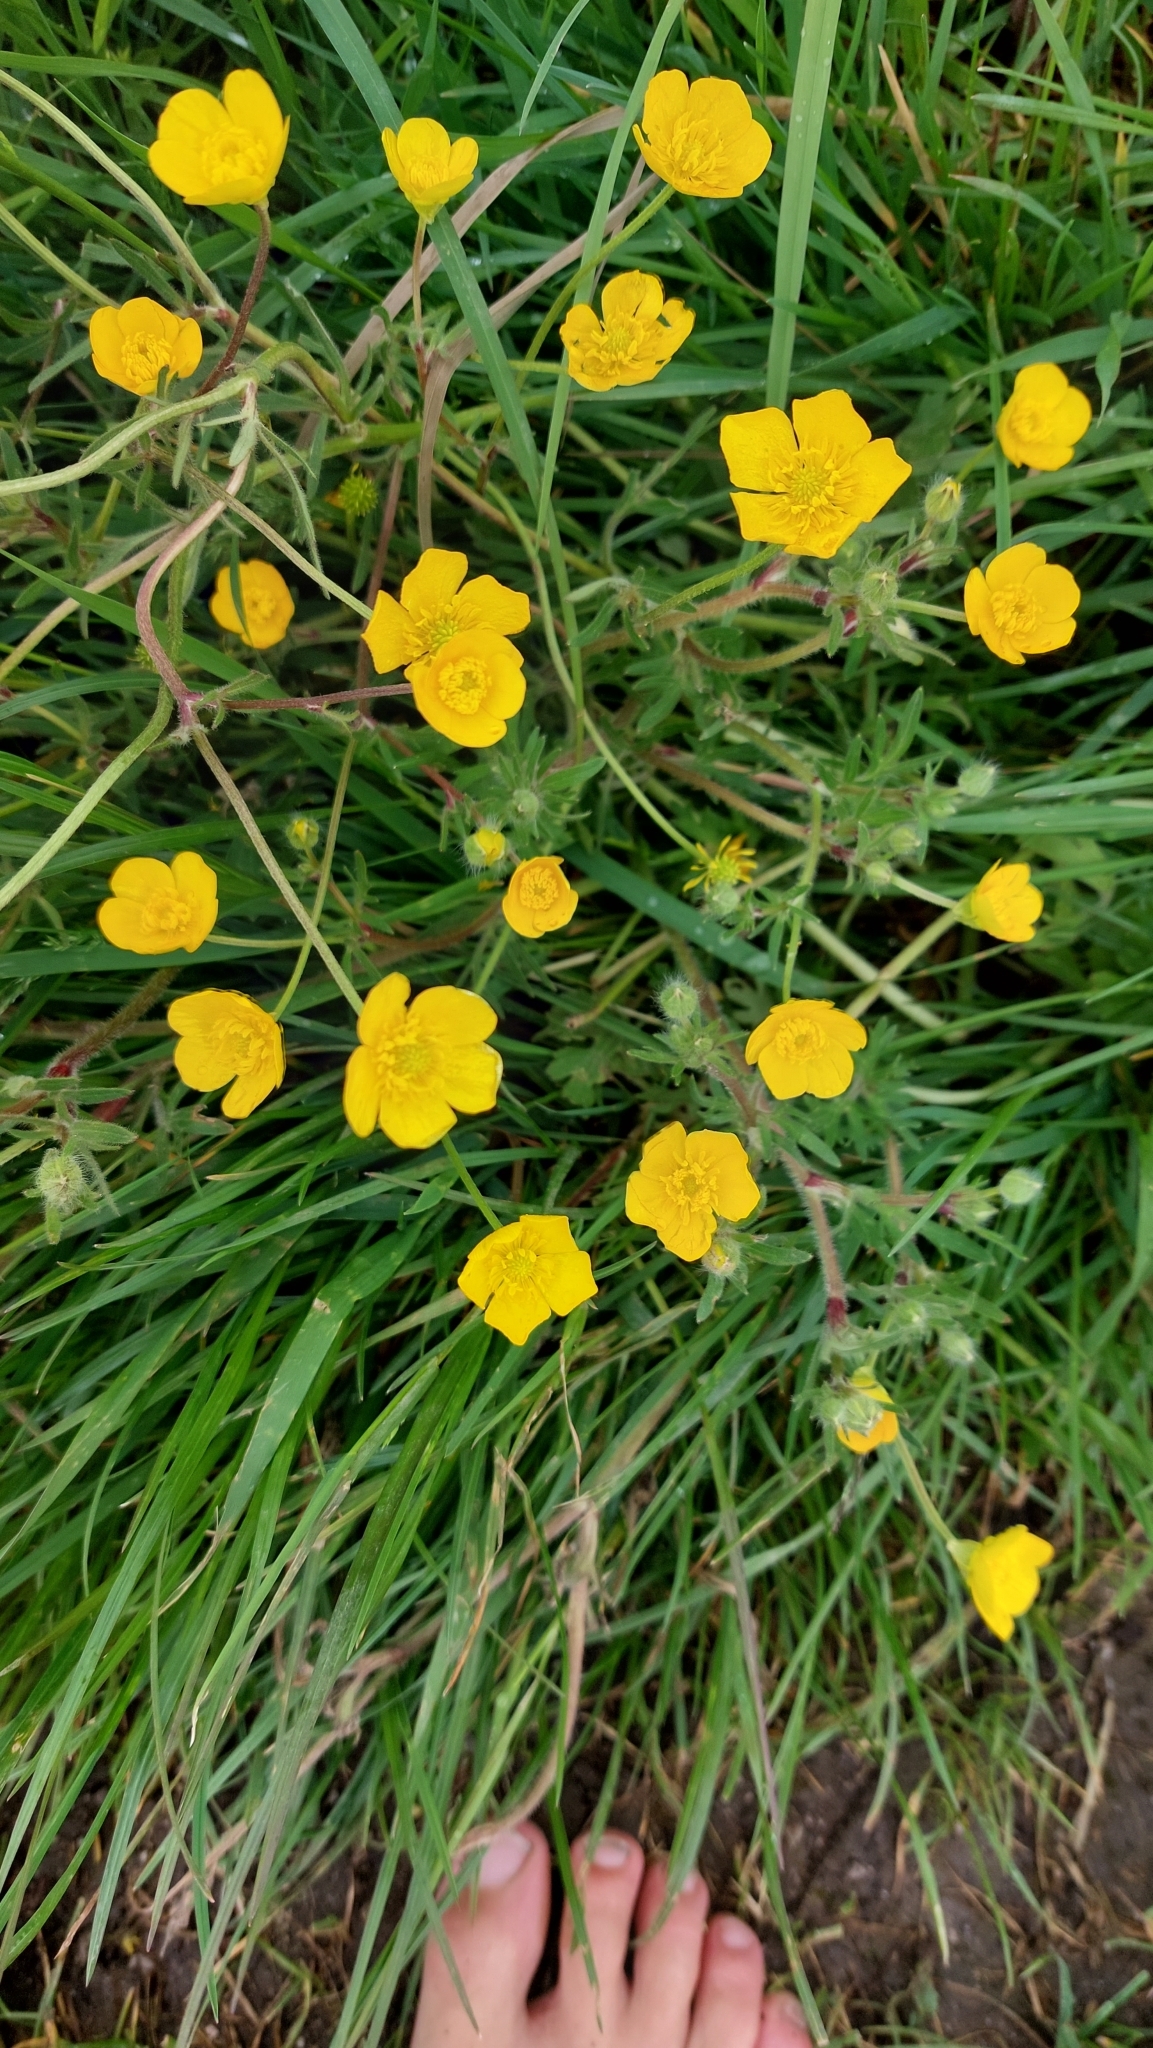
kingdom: Plantae
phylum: Tracheophyta
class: Magnoliopsida
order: Ranunculales
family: Ranunculaceae
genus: Ranunculus
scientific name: Ranunculus bulbosus
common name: Bulbous buttercup
